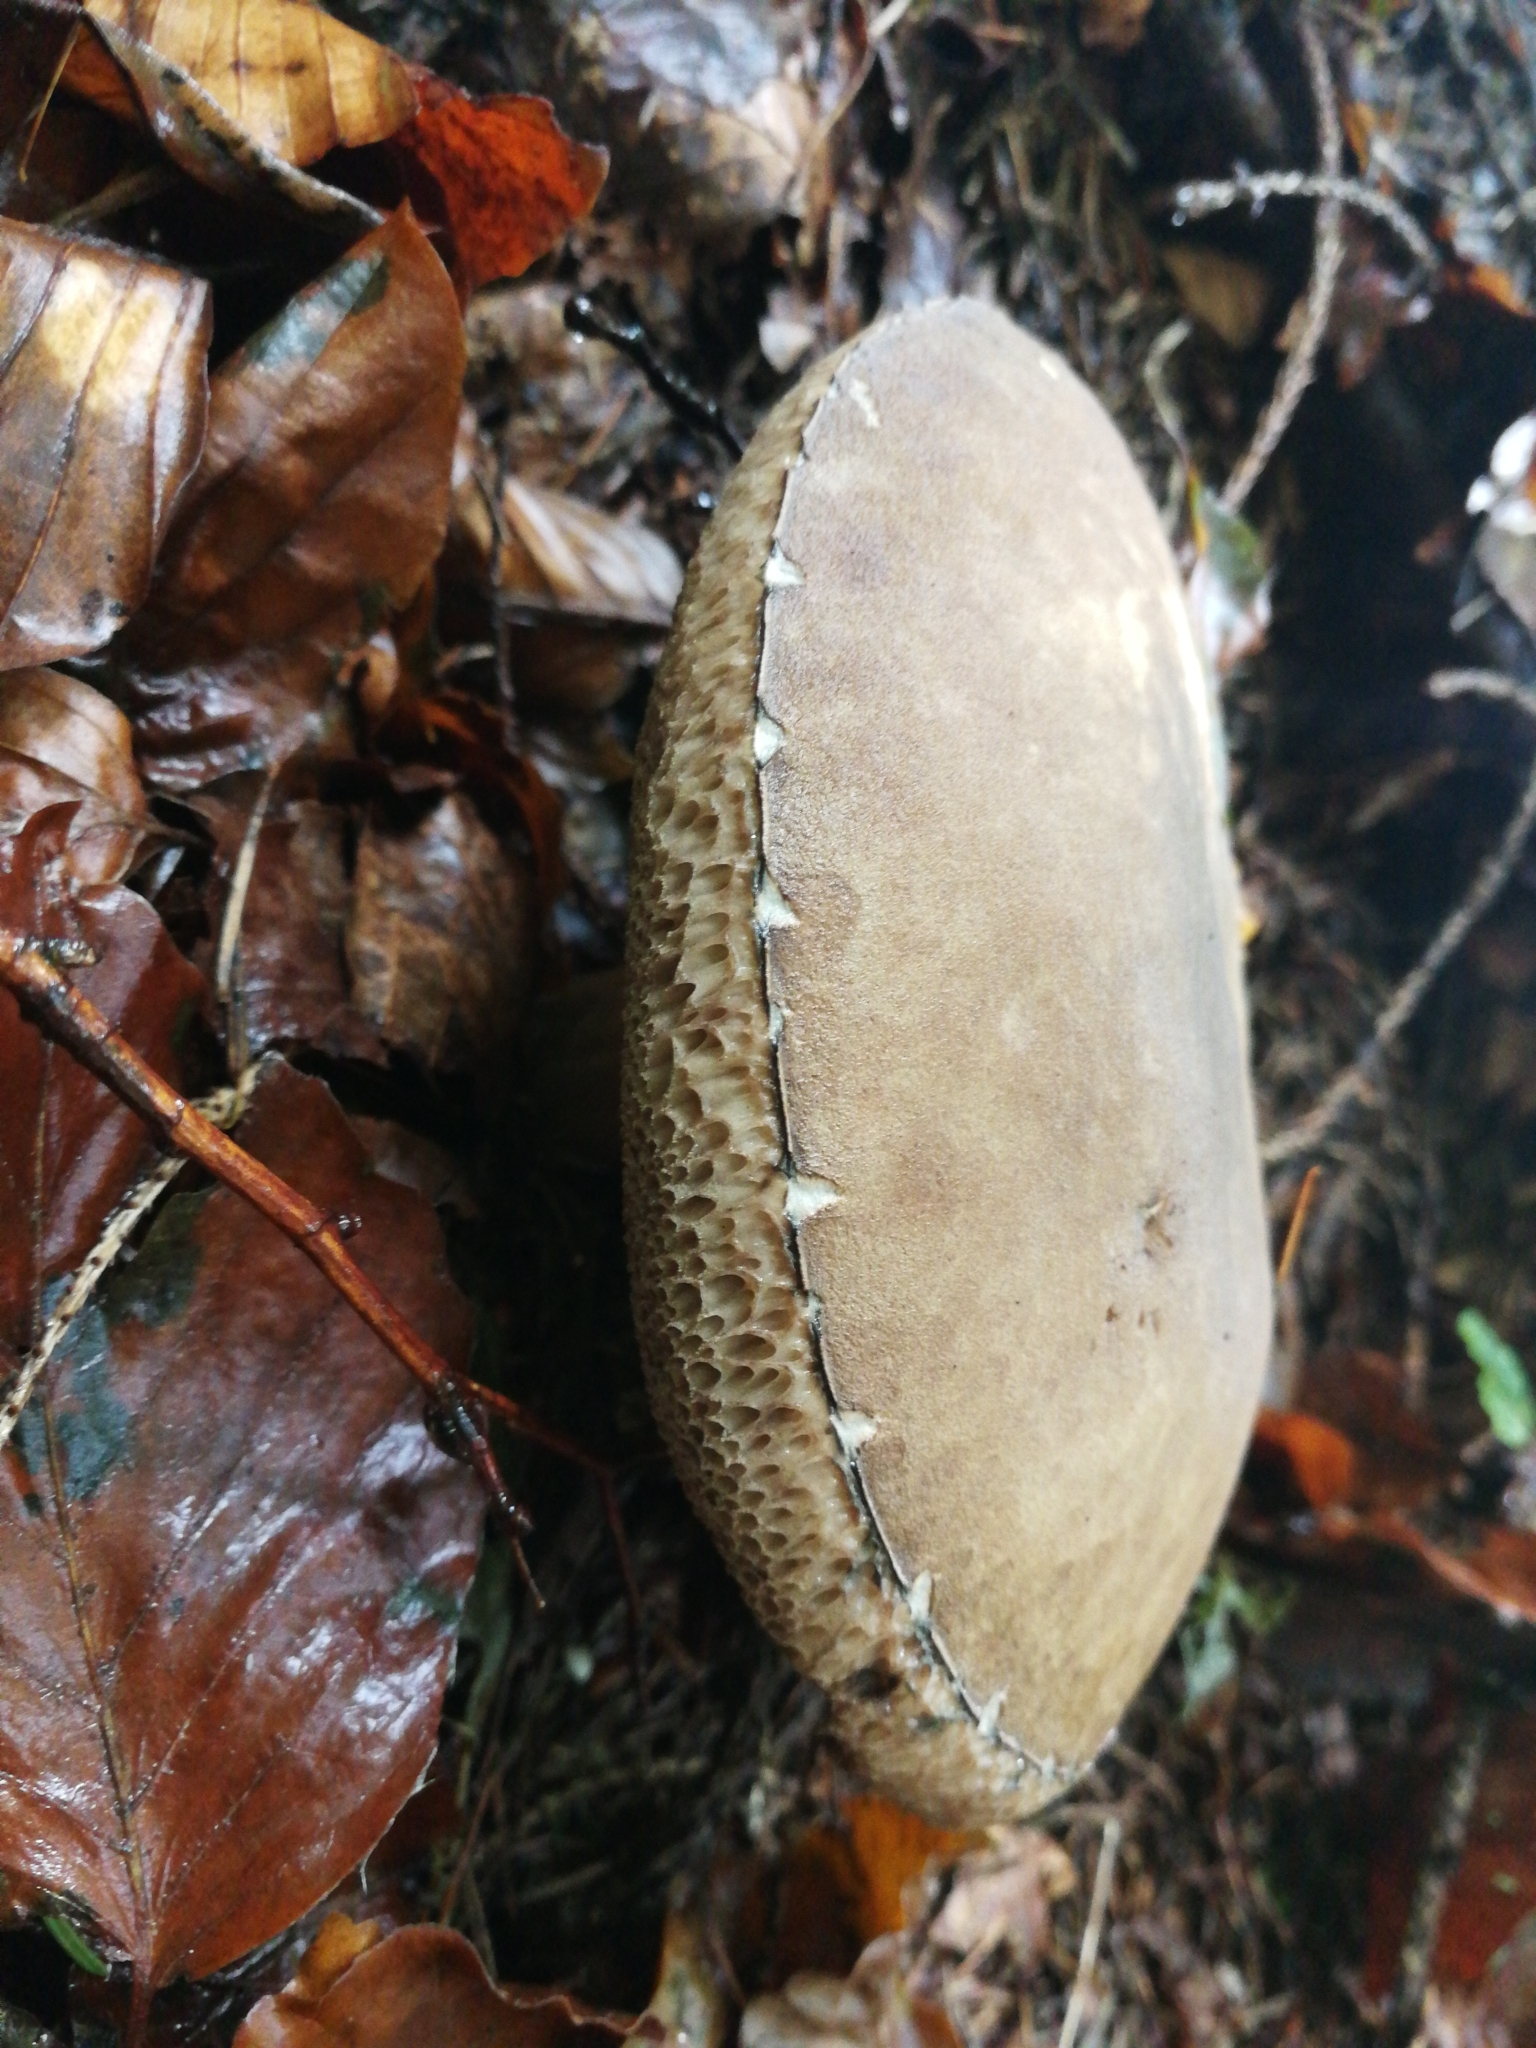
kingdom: Fungi
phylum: Basidiomycota
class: Agaricomycetes
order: Boletales
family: Boletaceae
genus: Porphyrellus
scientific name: Porphyrellus porphyrosporus
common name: Dusky bolete
